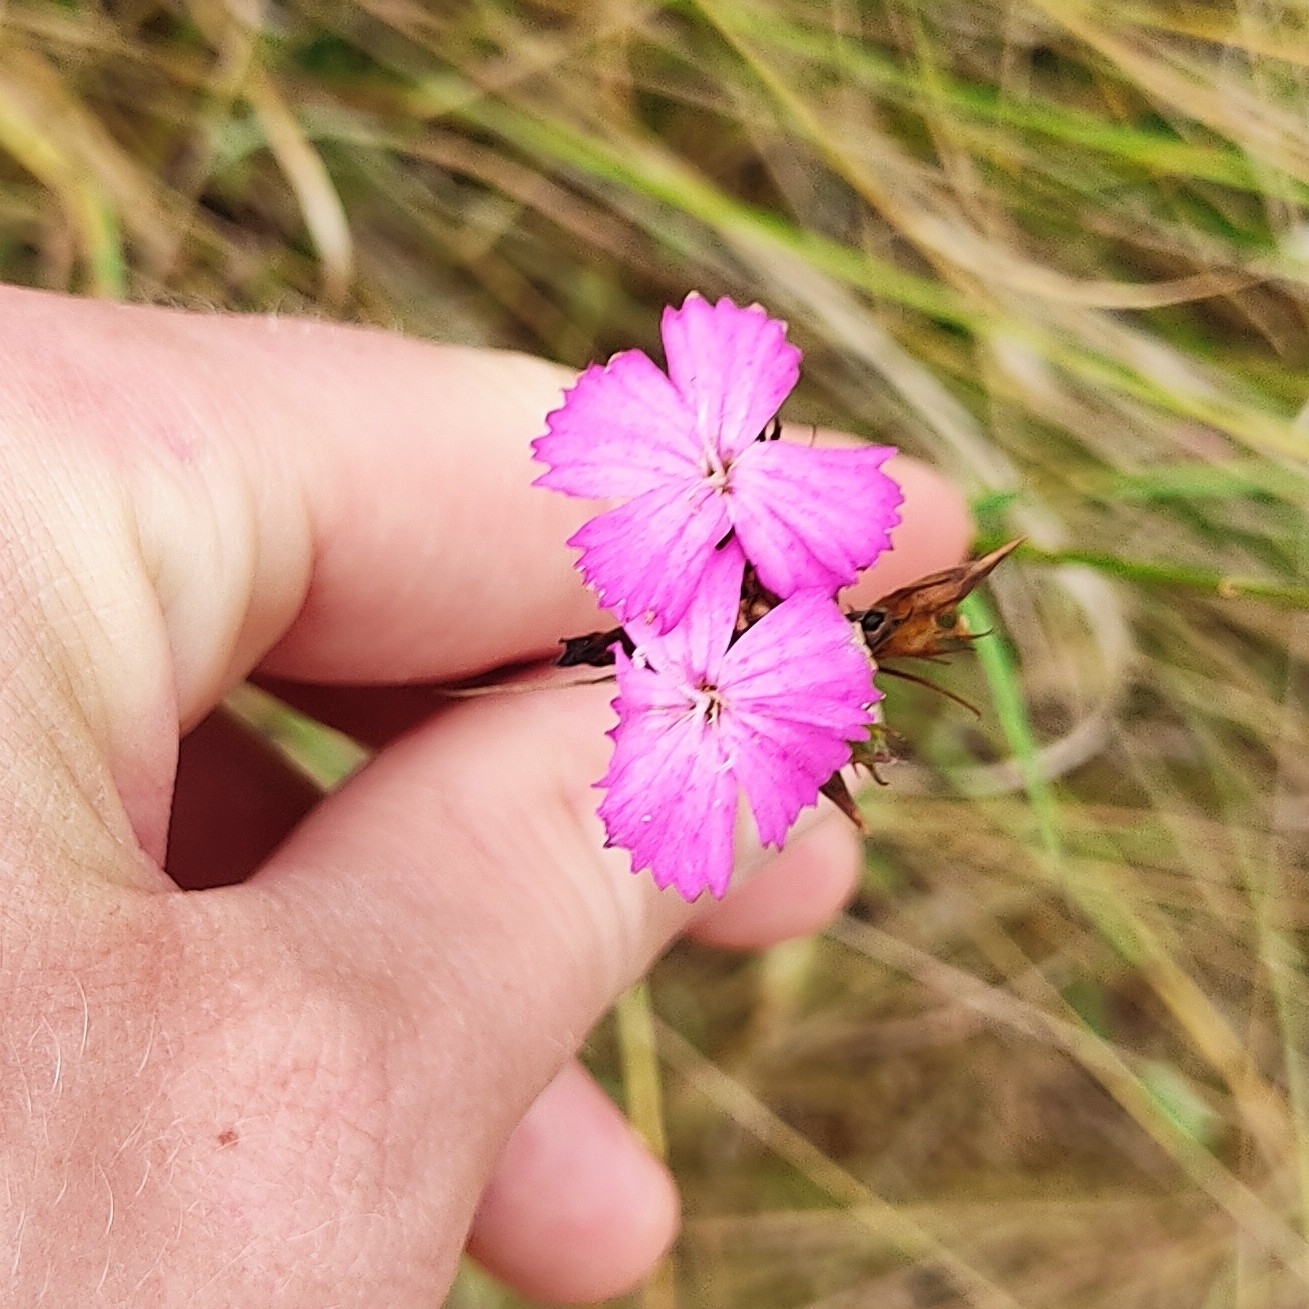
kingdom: Plantae
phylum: Tracheophyta
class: Magnoliopsida
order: Caryophyllales
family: Caryophyllaceae
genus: Dianthus
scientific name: Dianthus carthusianorum
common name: Carthusian pink
